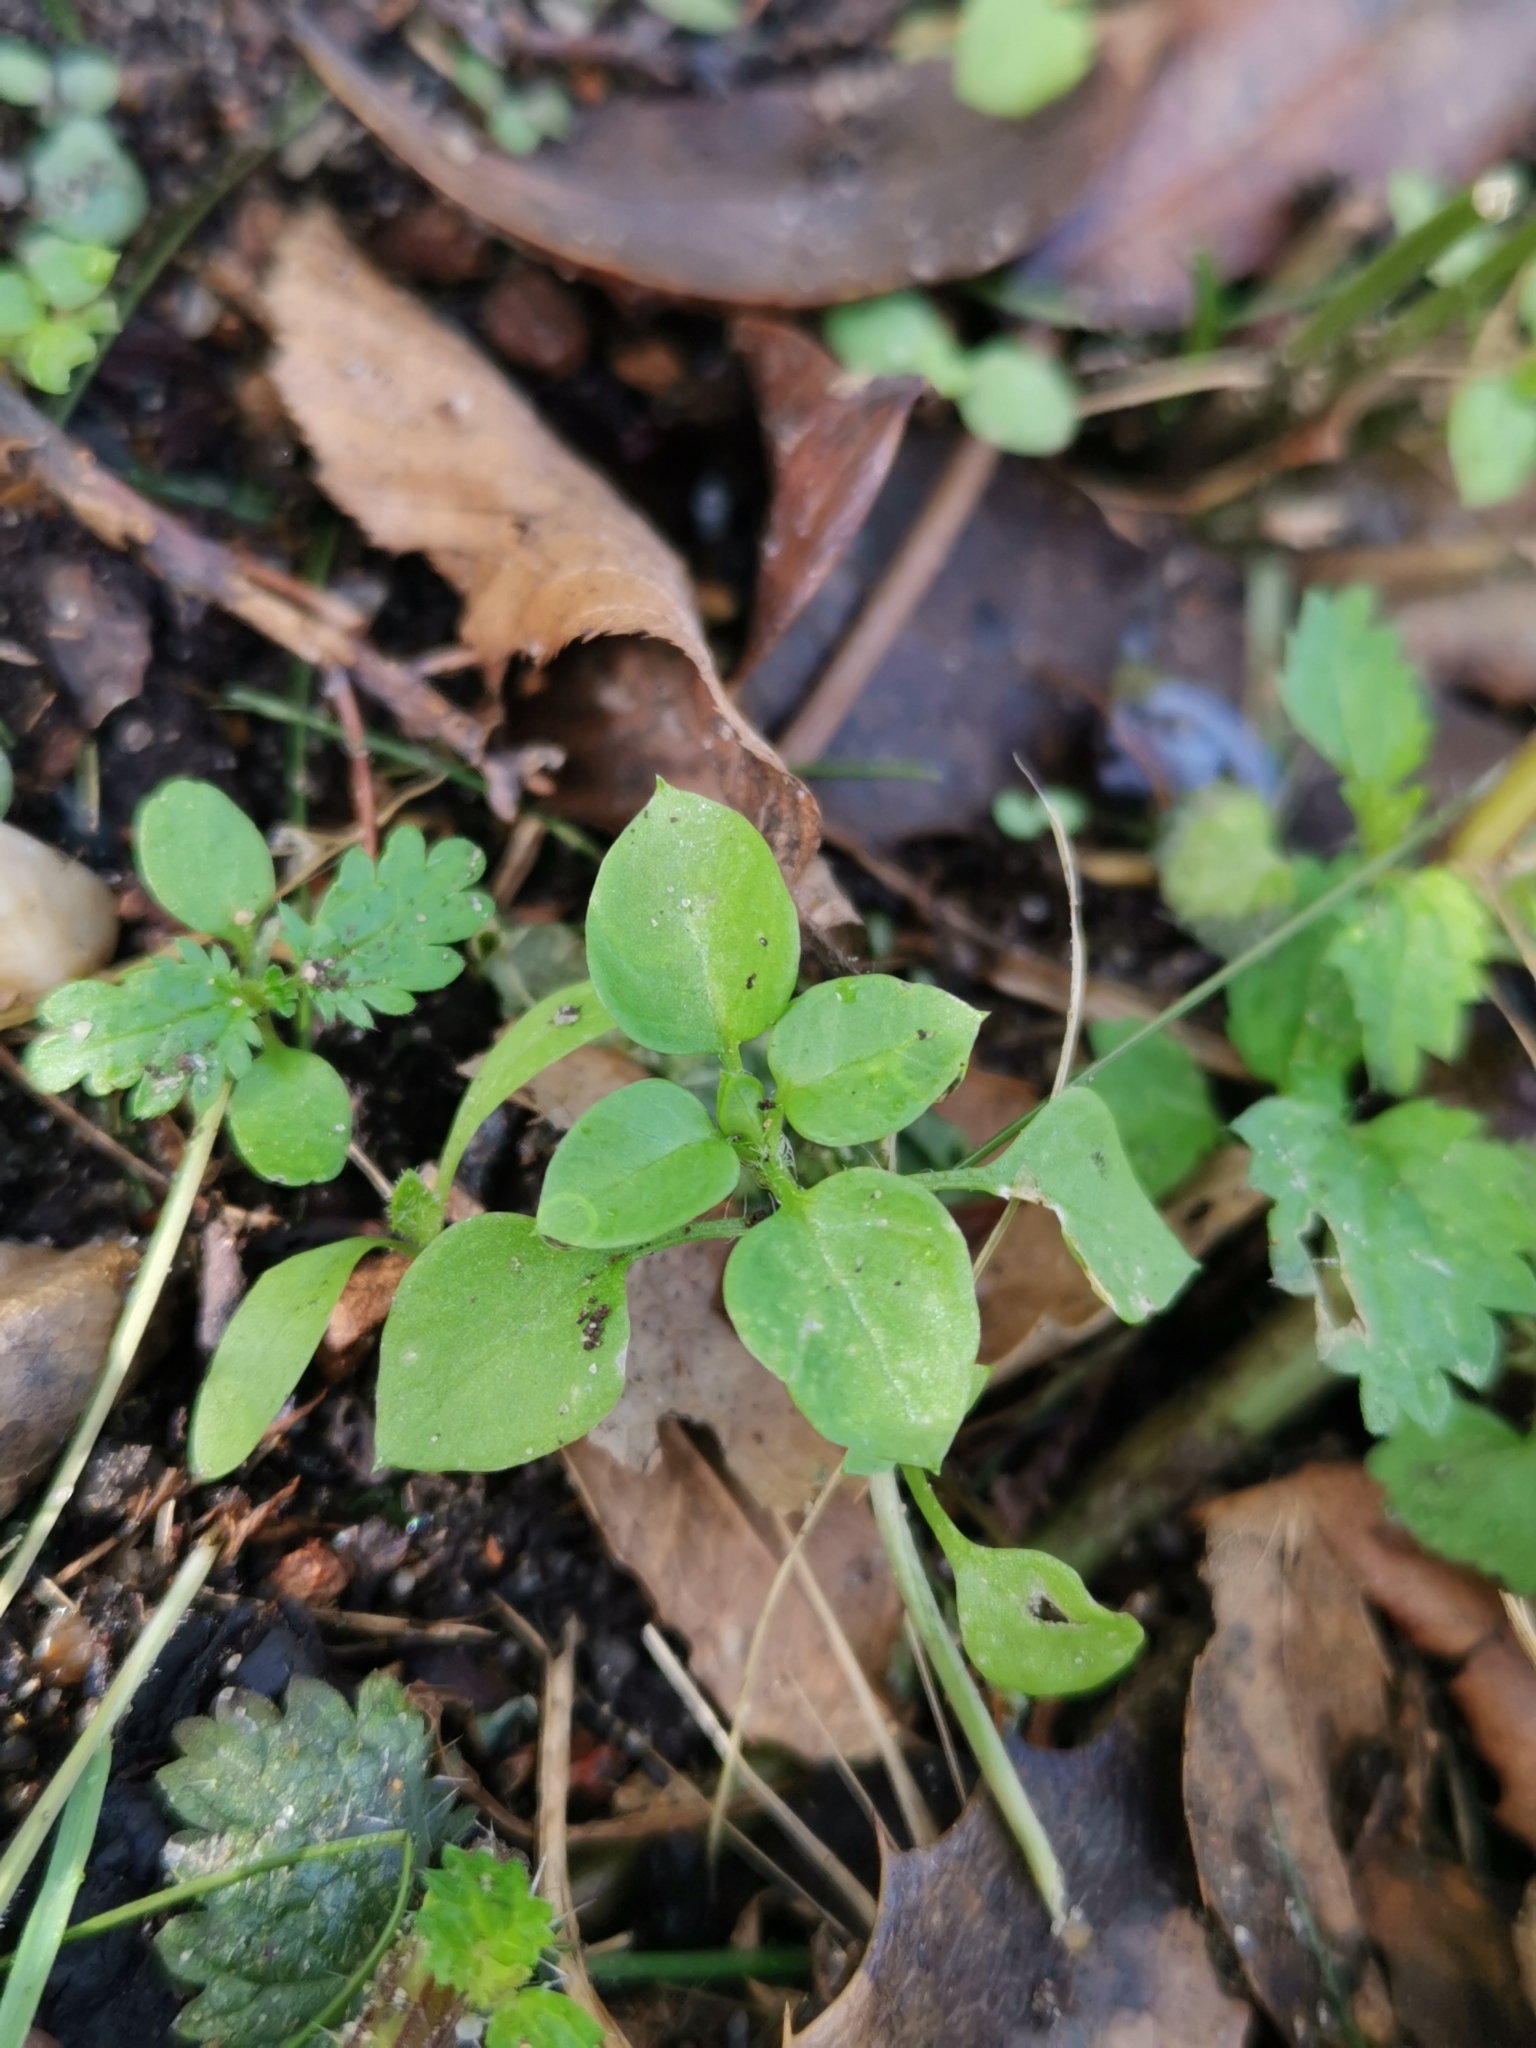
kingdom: Plantae
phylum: Tracheophyta
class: Magnoliopsida
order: Caryophyllales
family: Caryophyllaceae
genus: Stellaria
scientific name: Stellaria media
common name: Common chickweed
